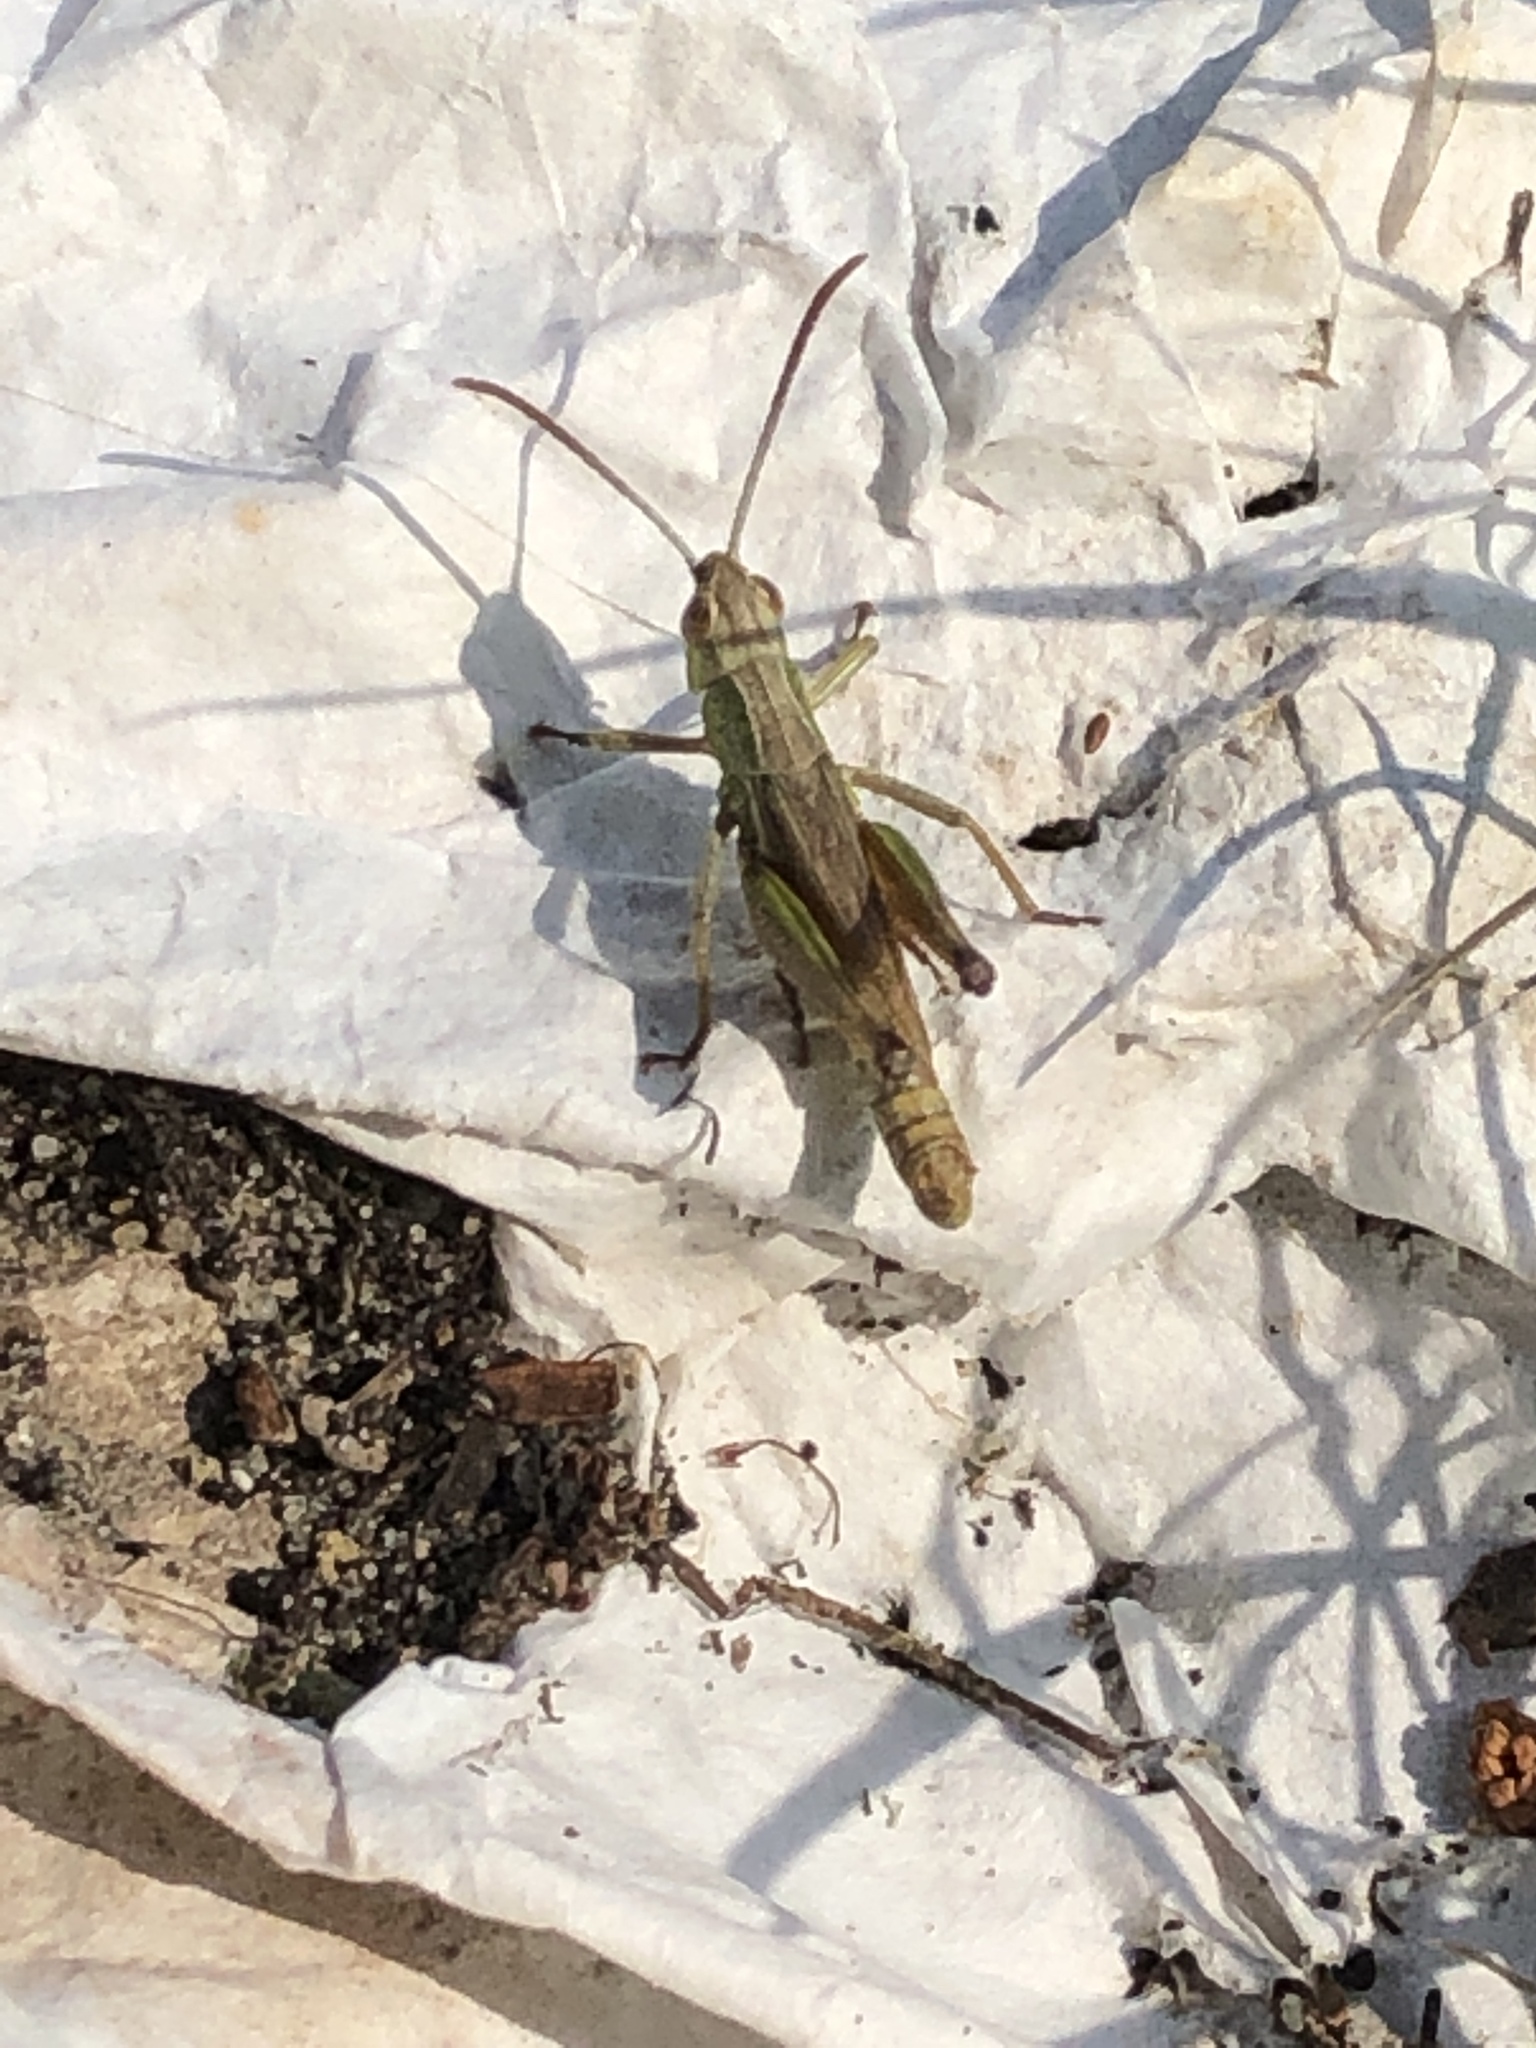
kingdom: Animalia
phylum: Arthropoda
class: Insecta
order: Orthoptera
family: Acrididae
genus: Pseudochorthippus
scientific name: Pseudochorthippus parallelus
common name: Meadow grasshopper
